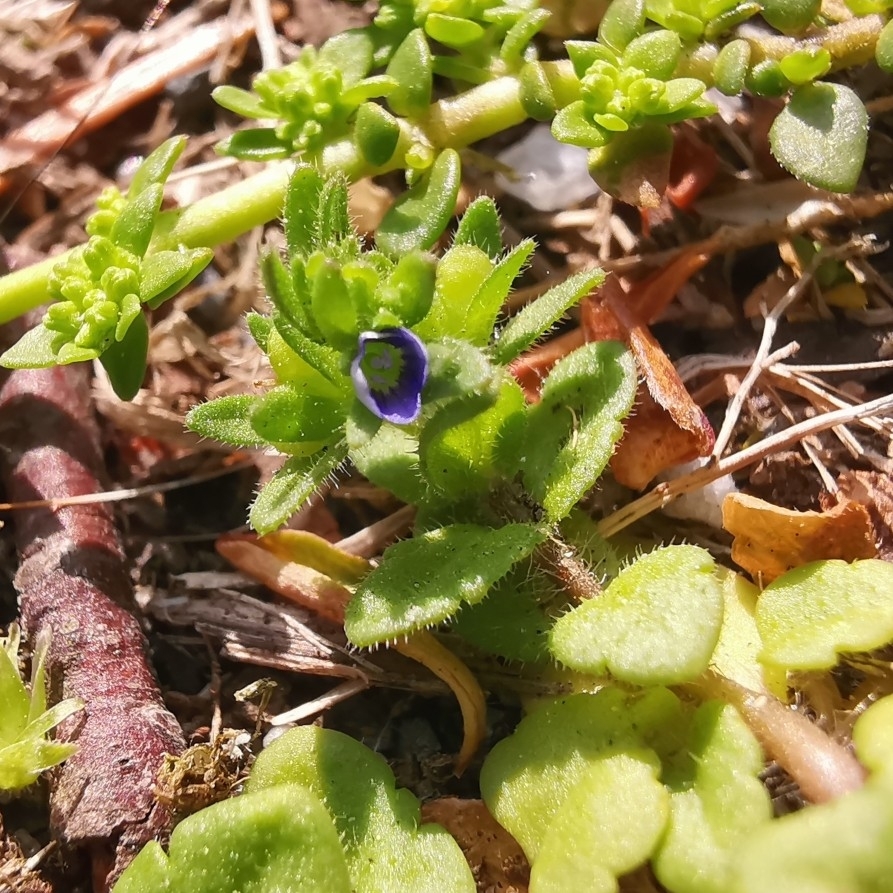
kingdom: Plantae
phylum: Tracheophyta
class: Magnoliopsida
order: Lamiales
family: Plantaginaceae
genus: Veronica
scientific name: Veronica arvensis
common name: Corn speedwell
